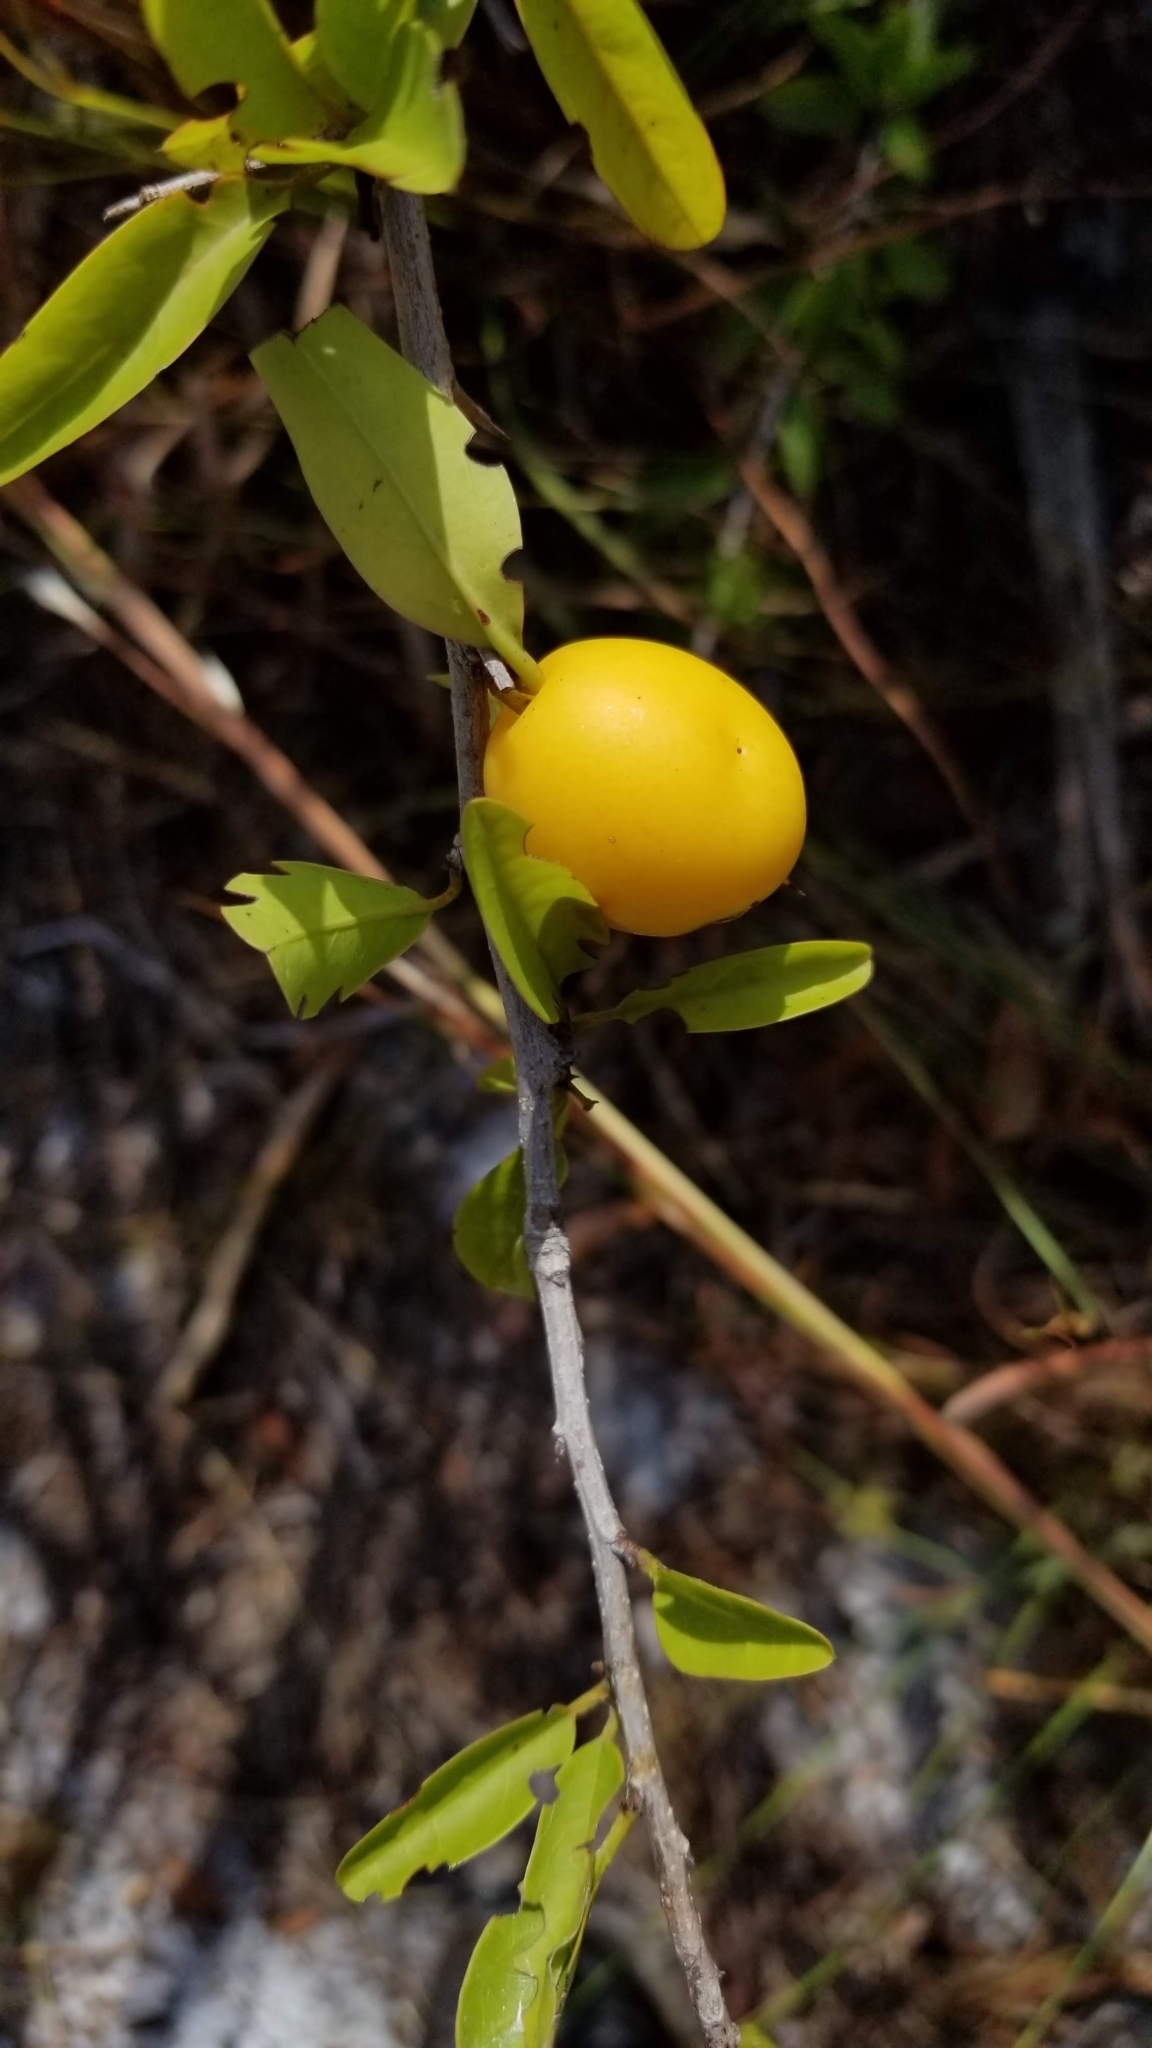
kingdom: Plantae
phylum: Tracheophyta
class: Magnoliopsida
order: Santalales
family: Ximeniaceae
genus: Ximenia
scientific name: Ximenia americana
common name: Tallowwood
